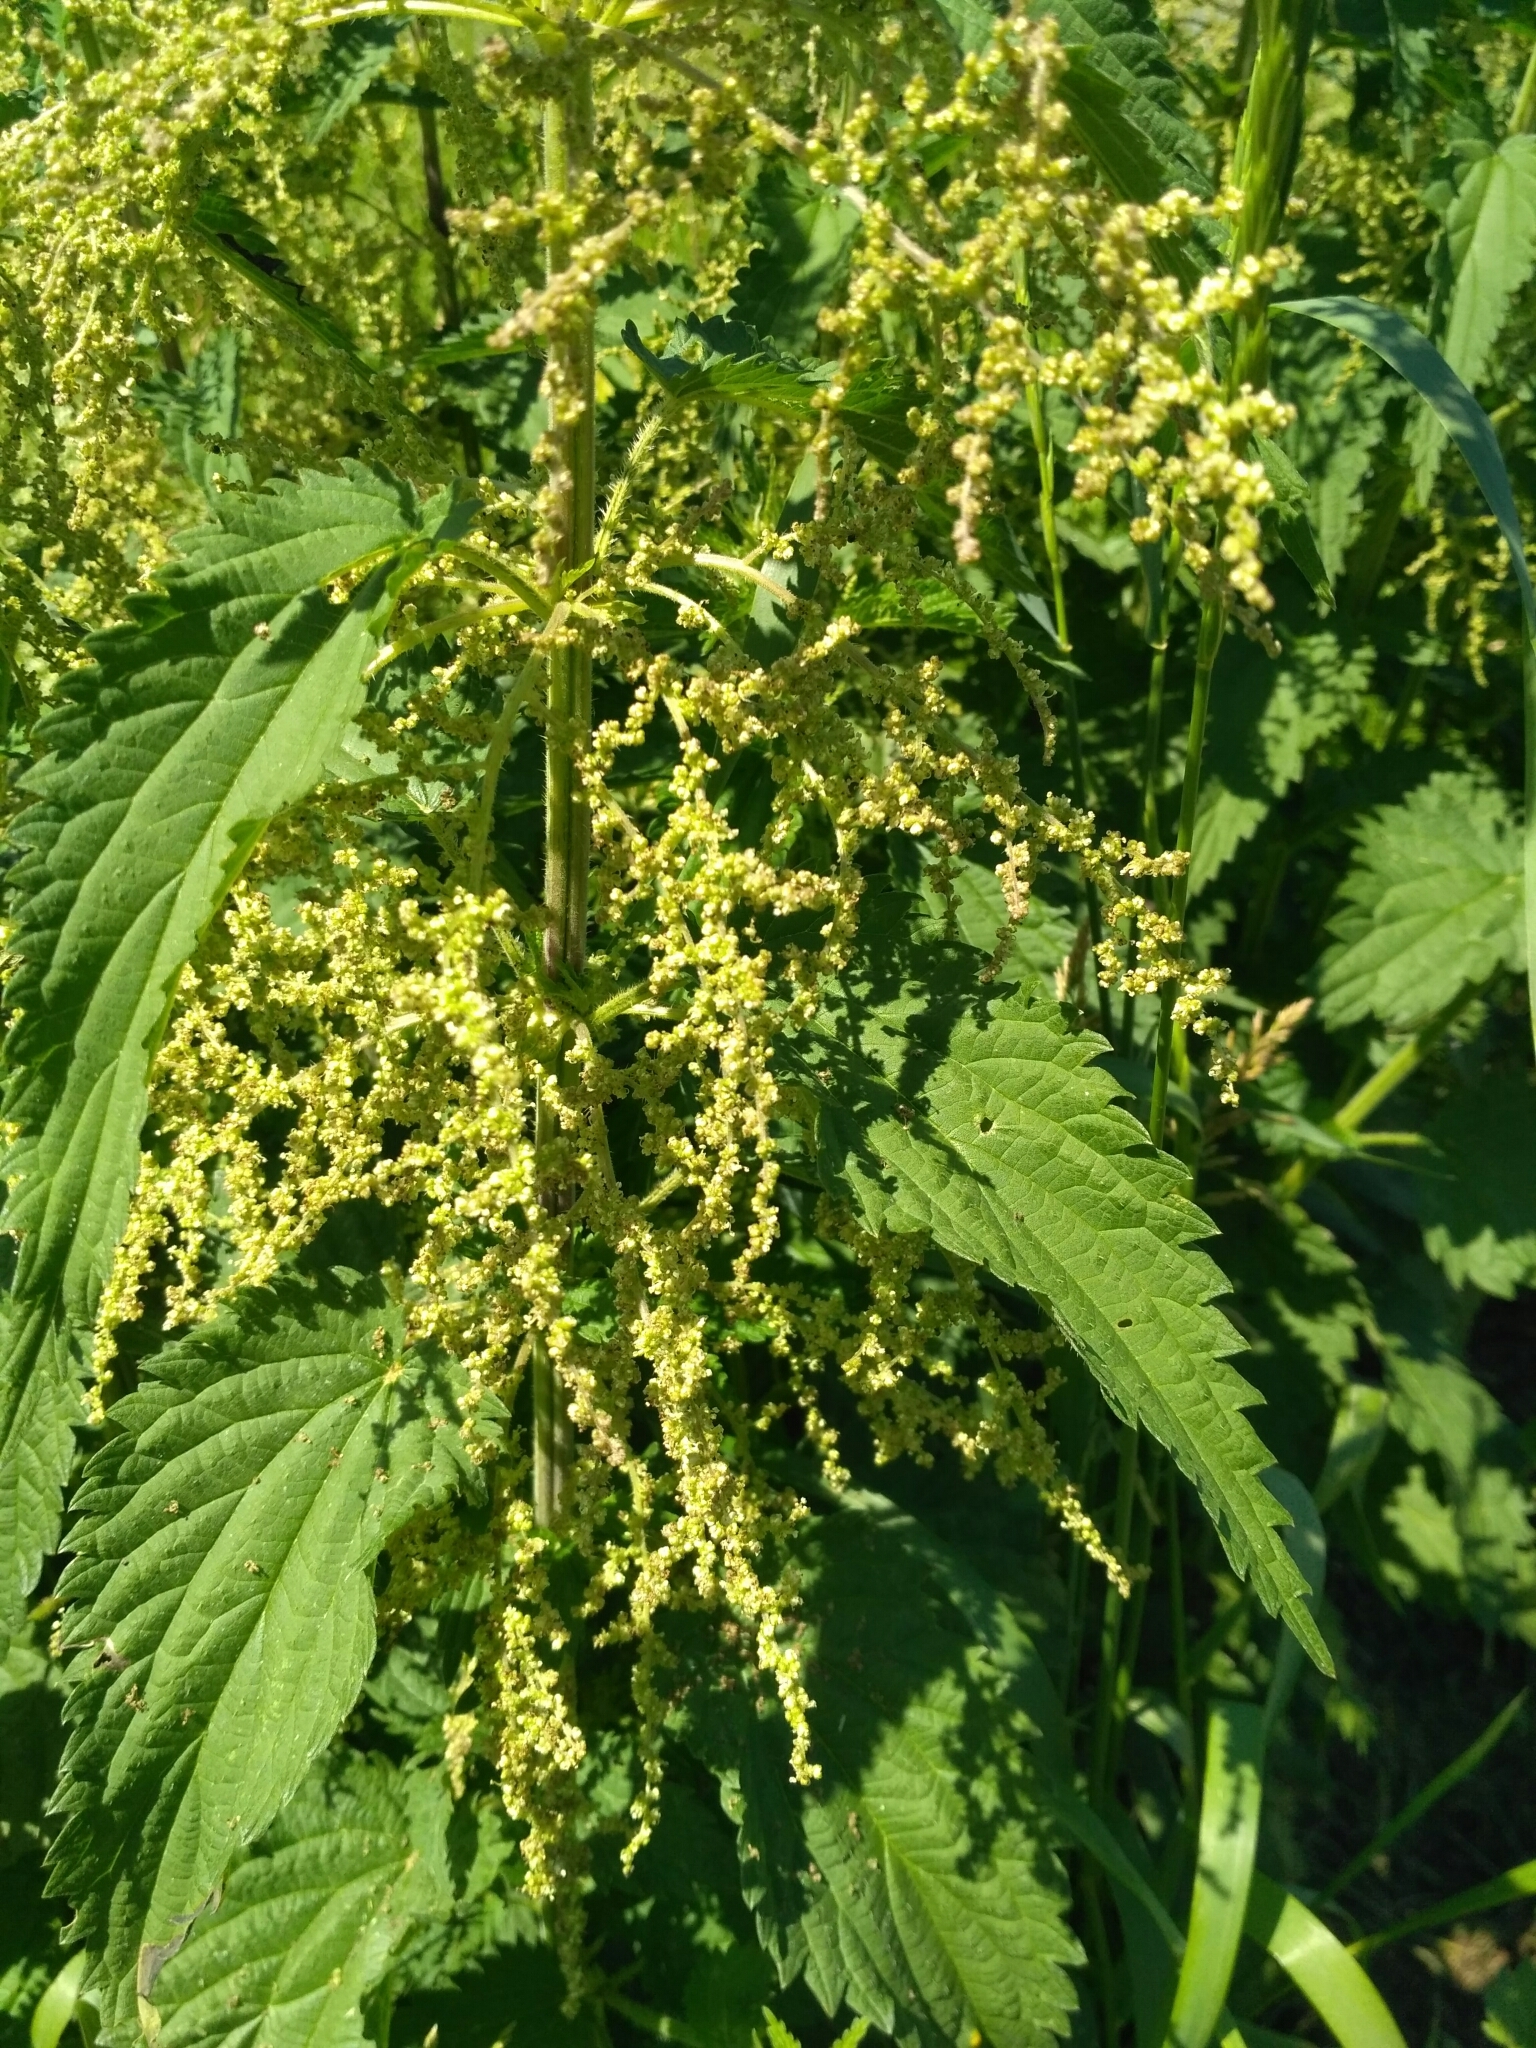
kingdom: Plantae
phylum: Tracheophyta
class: Magnoliopsida
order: Rosales
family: Urticaceae
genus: Urtica
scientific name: Urtica dioica
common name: Common nettle
